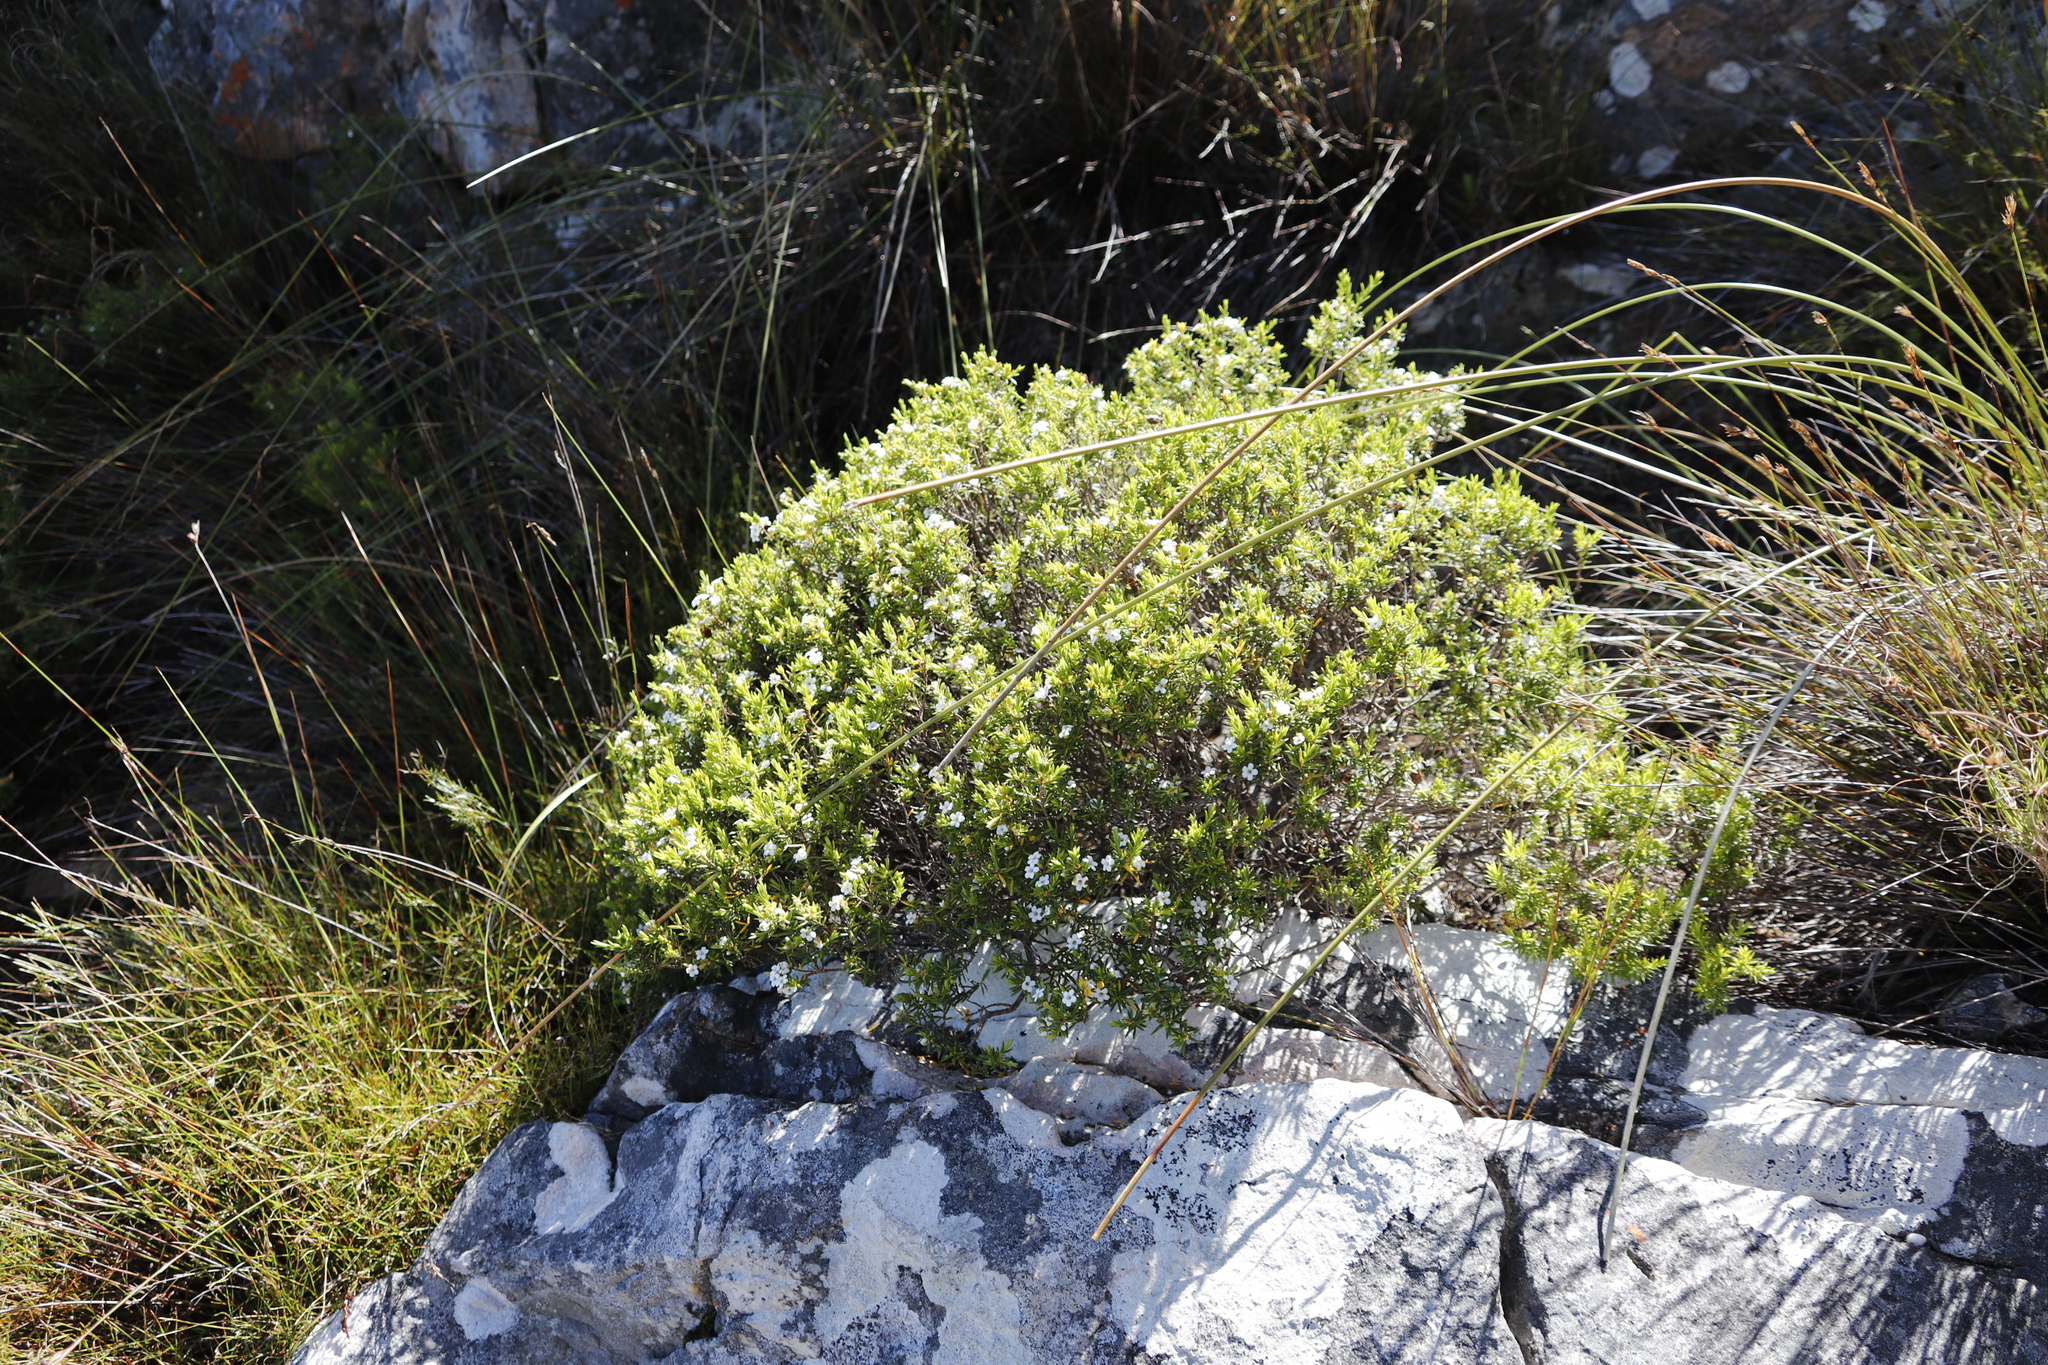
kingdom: Plantae
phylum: Tracheophyta
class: Magnoliopsida
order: Sapindales
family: Rutaceae
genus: Coleonema
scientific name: Coleonema album
